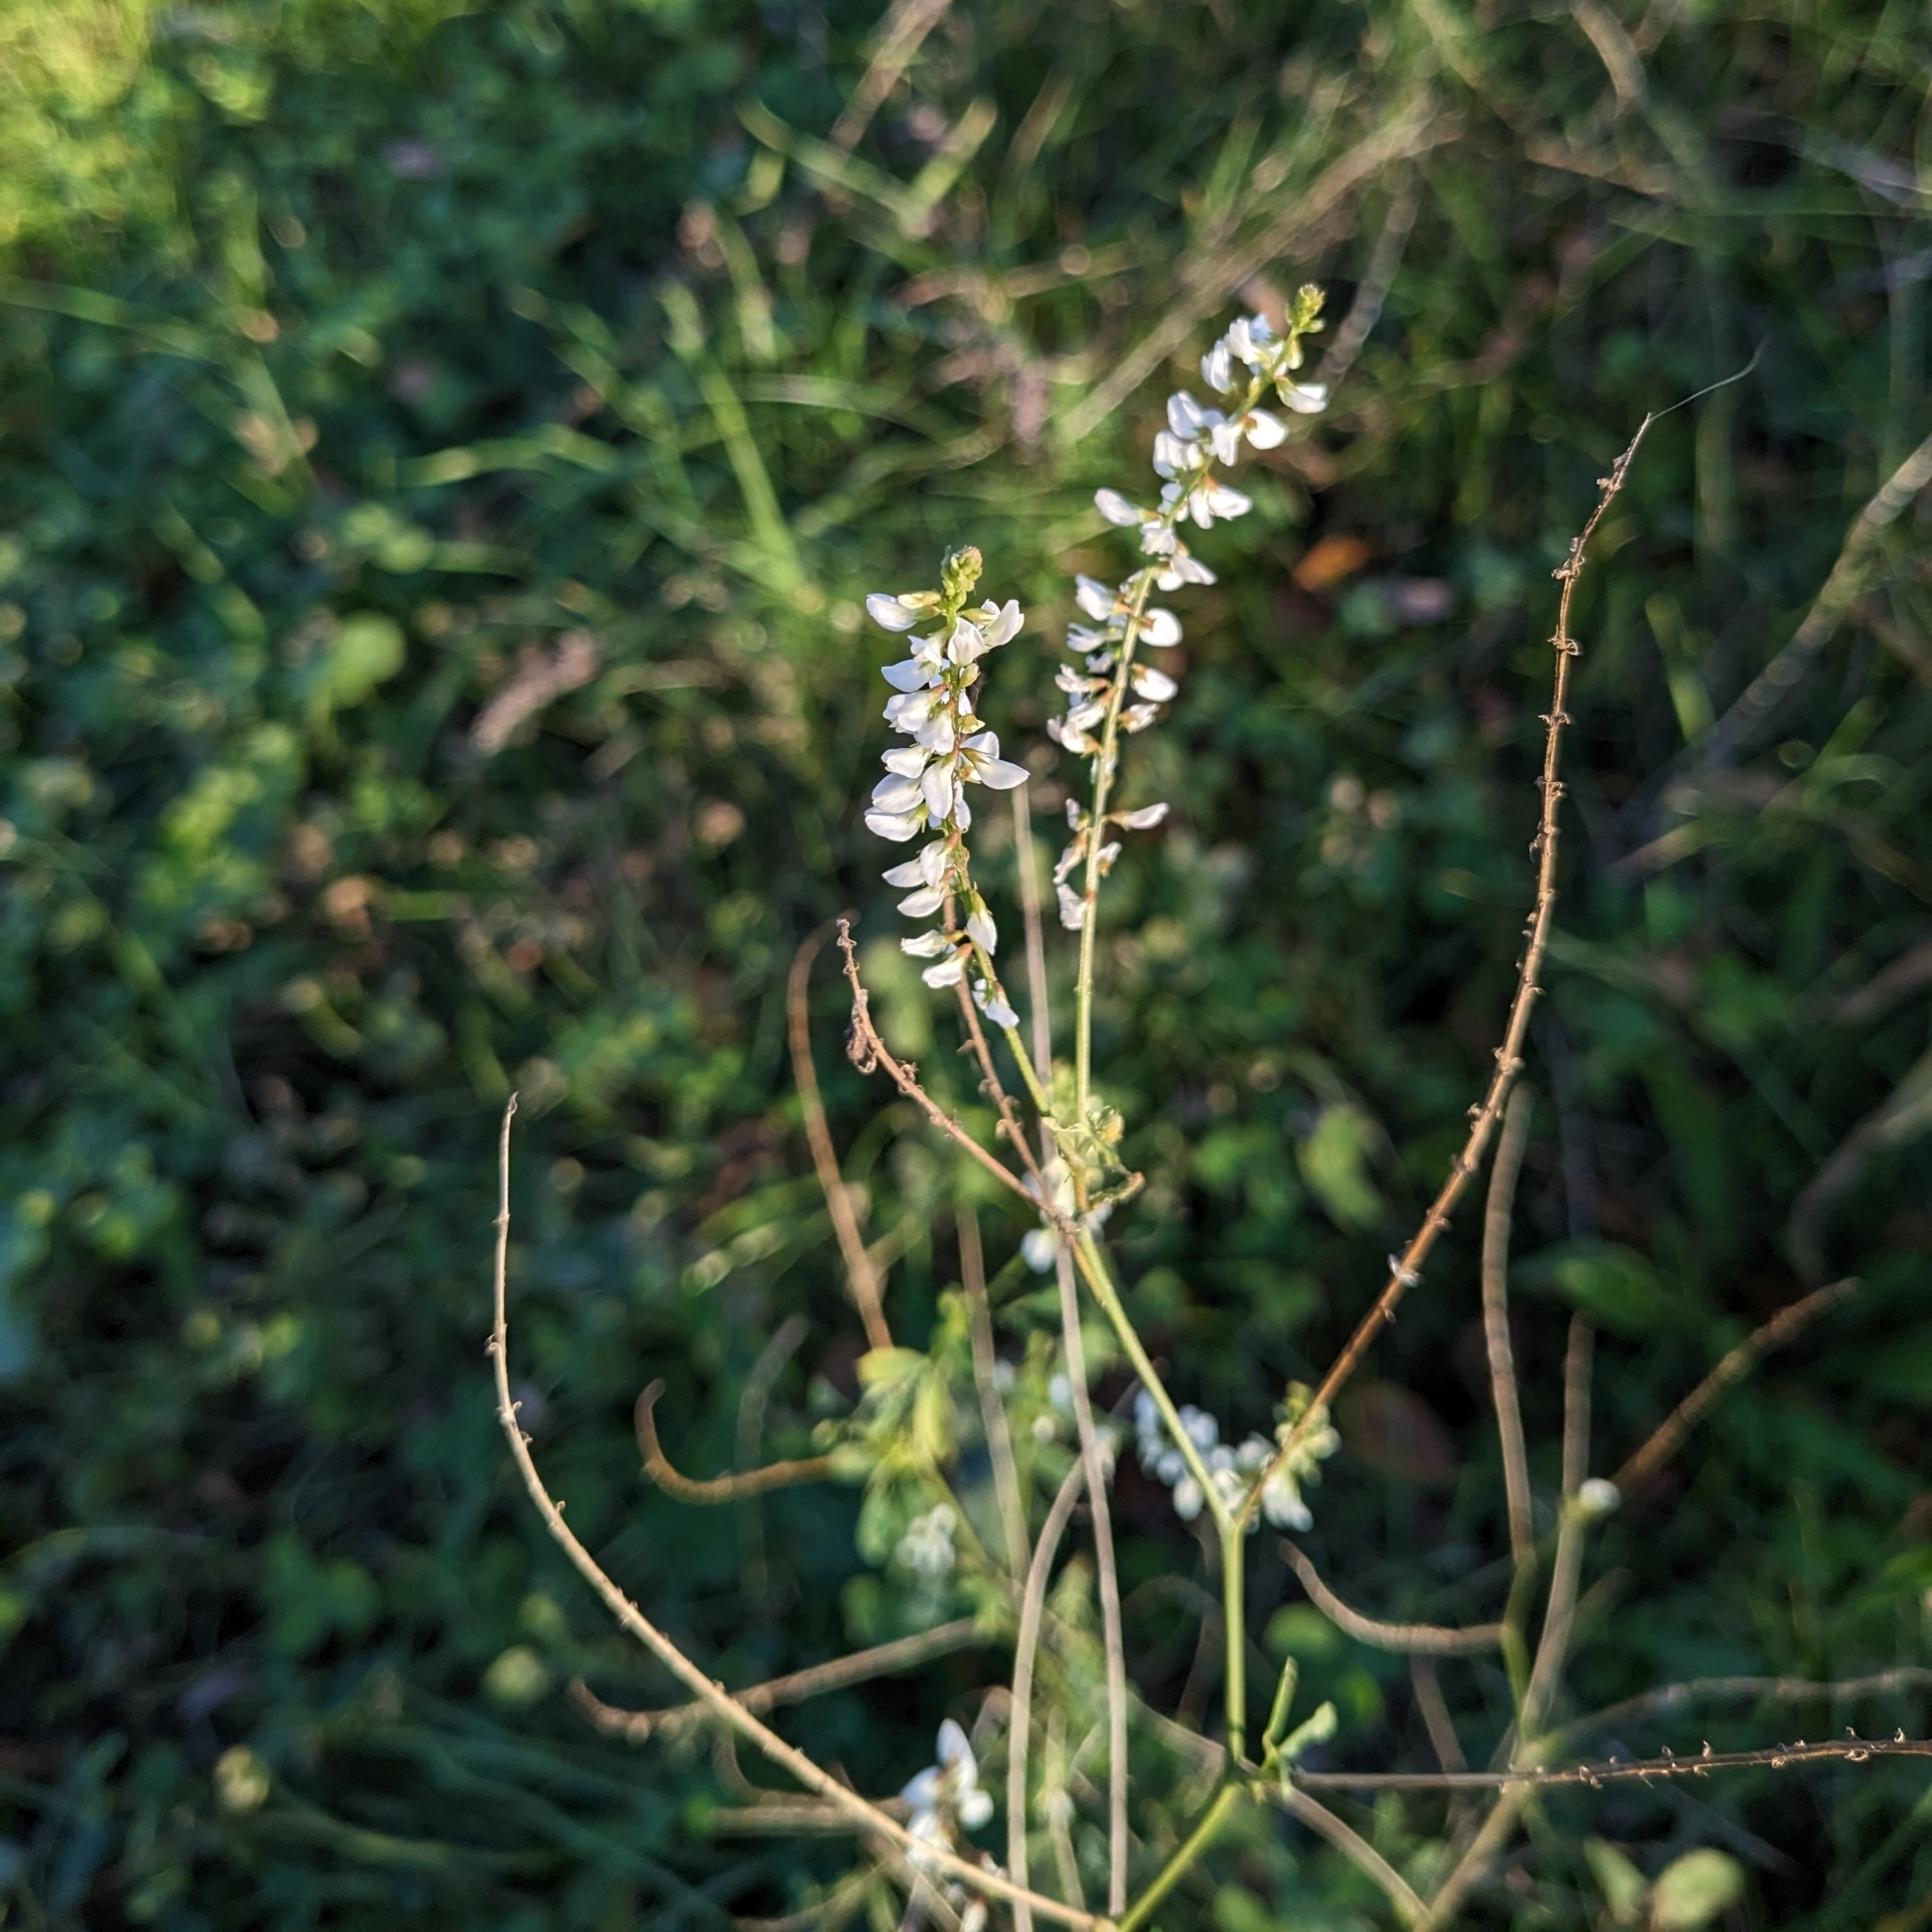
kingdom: Plantae
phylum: Tracheophyta
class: Magnoliopsida
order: Fabales
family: Fabaceae
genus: Melilotus
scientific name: Melilotus albus
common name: White melilot
